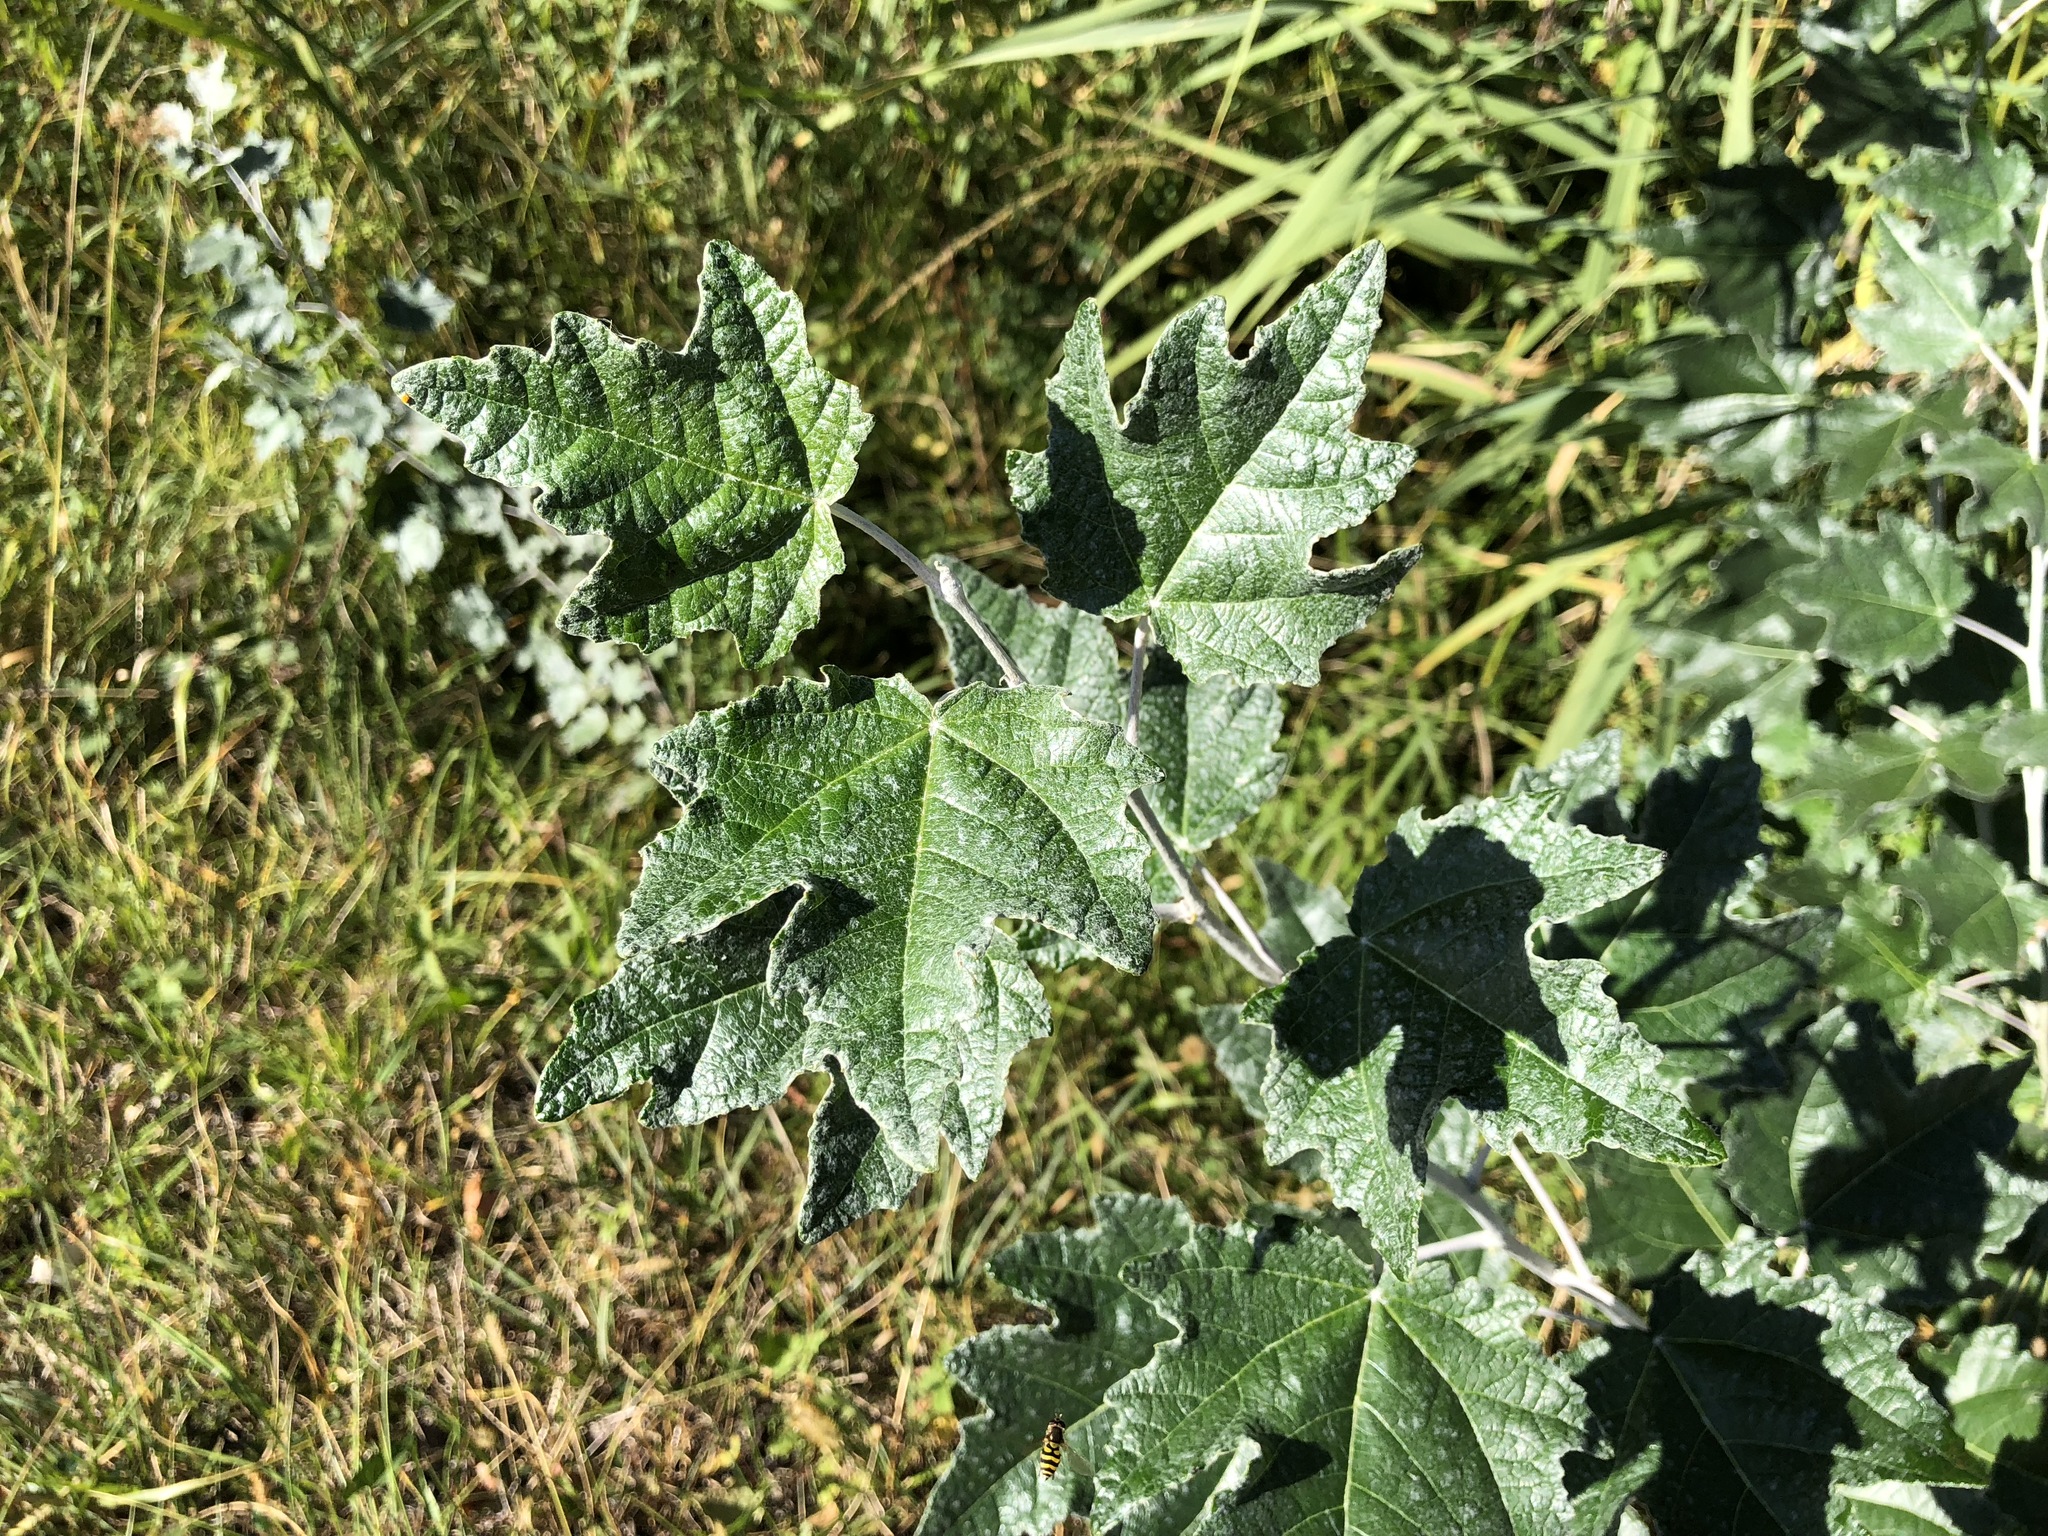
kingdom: Plantae
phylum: Tracheophyta
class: Magnoliopsida
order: Malpighiales
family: Salicaceae
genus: Populus
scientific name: Populus alba
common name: White poplar
